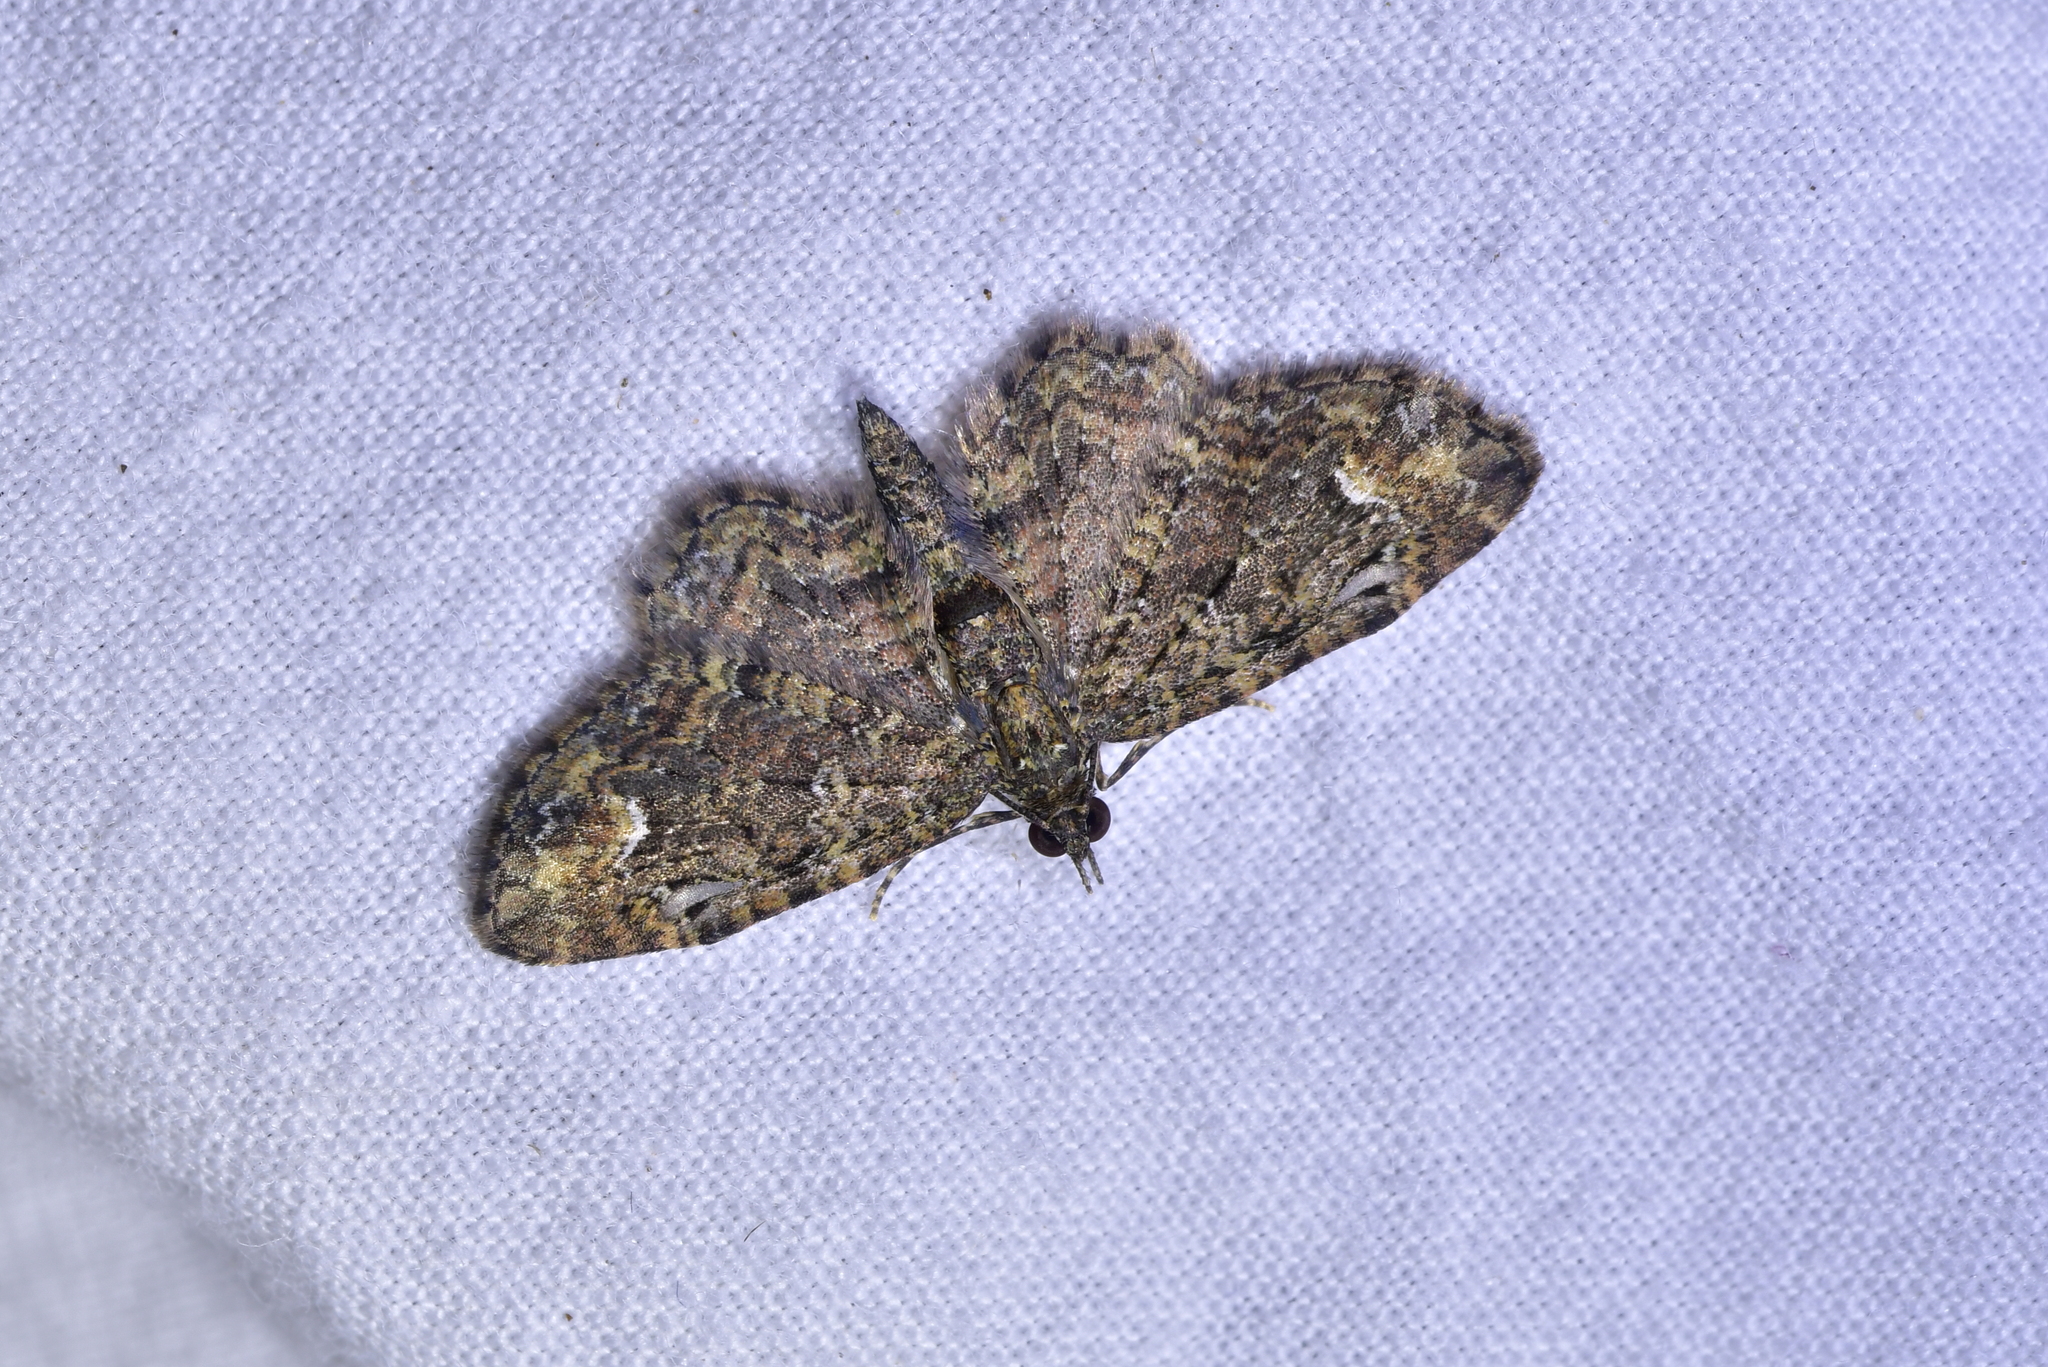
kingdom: Animalia
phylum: Arthropoda
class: Insecta
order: Lepidoptera
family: Geometridae
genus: Pasiphilodes
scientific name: Pasiphilodes testulata
